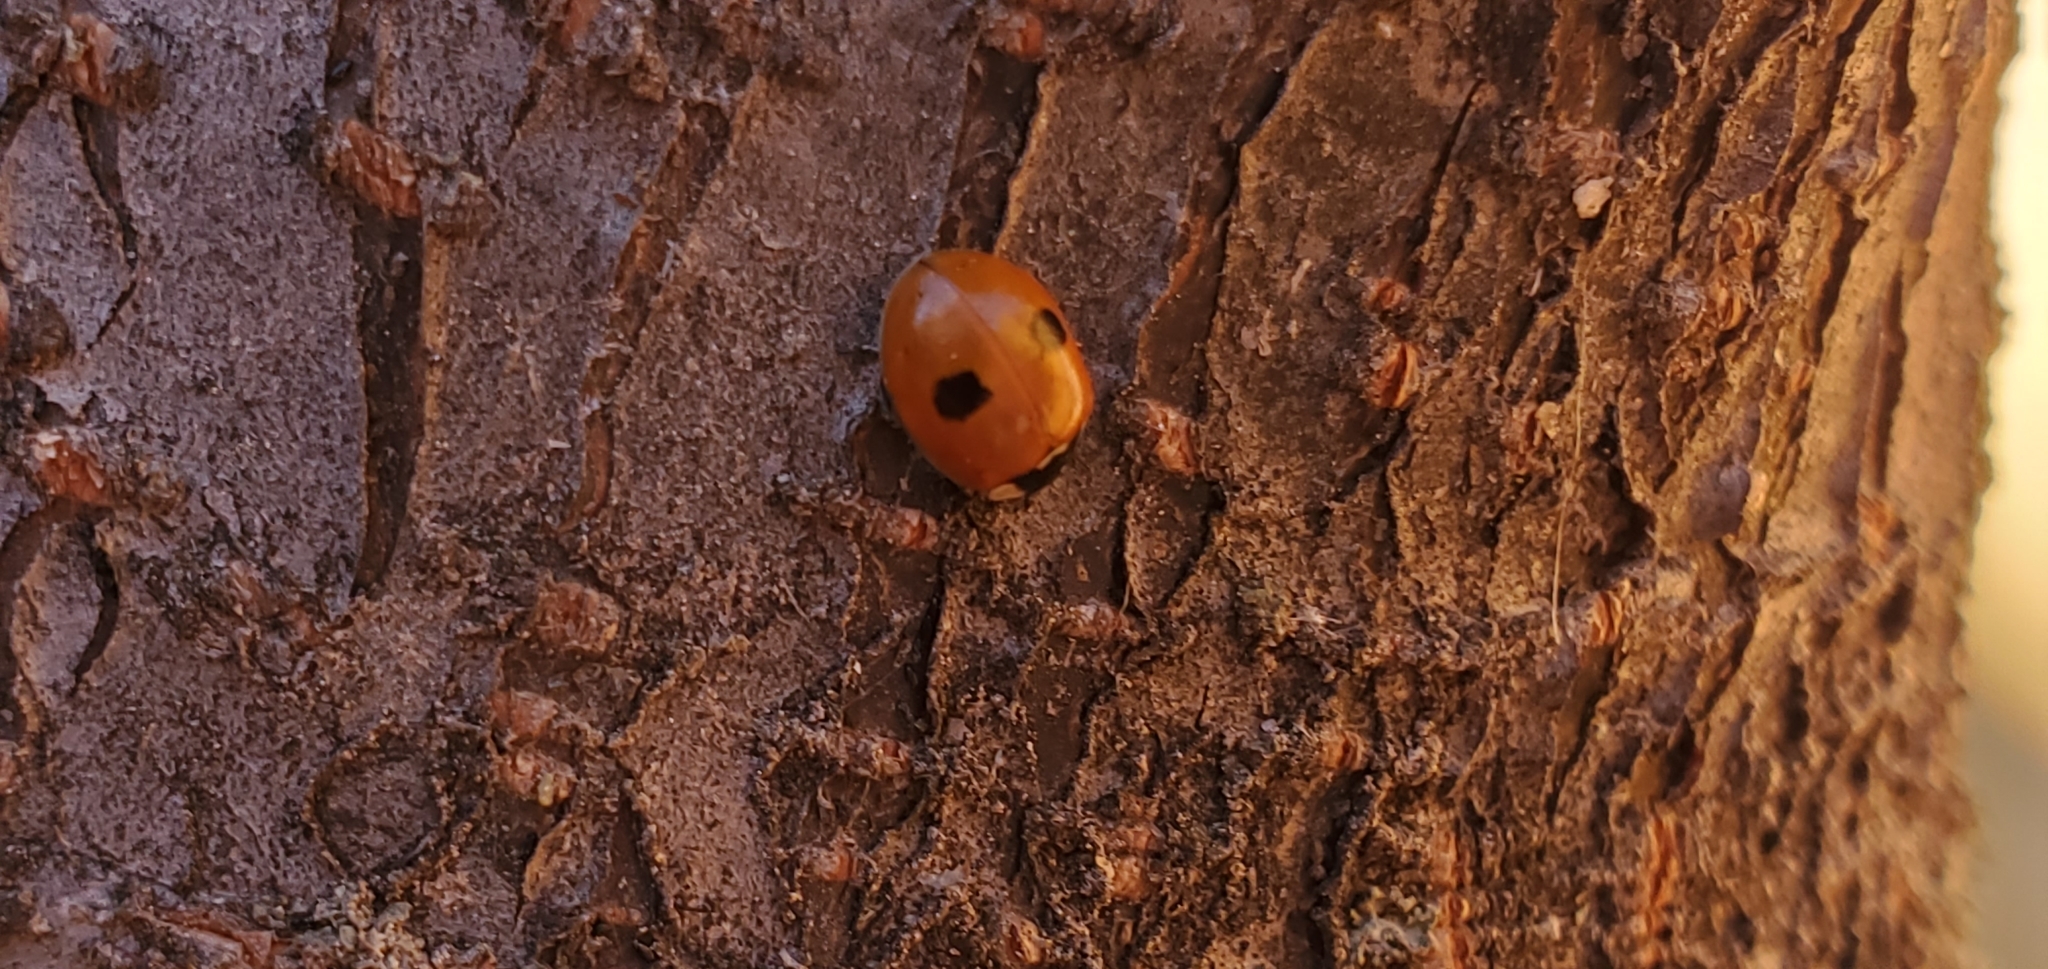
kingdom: Animalia
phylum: Arthropoda
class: Insecta
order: Coleoptera
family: Coccinellidae
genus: Adalia
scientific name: Adalia bipunctata
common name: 2-spot ladybird
